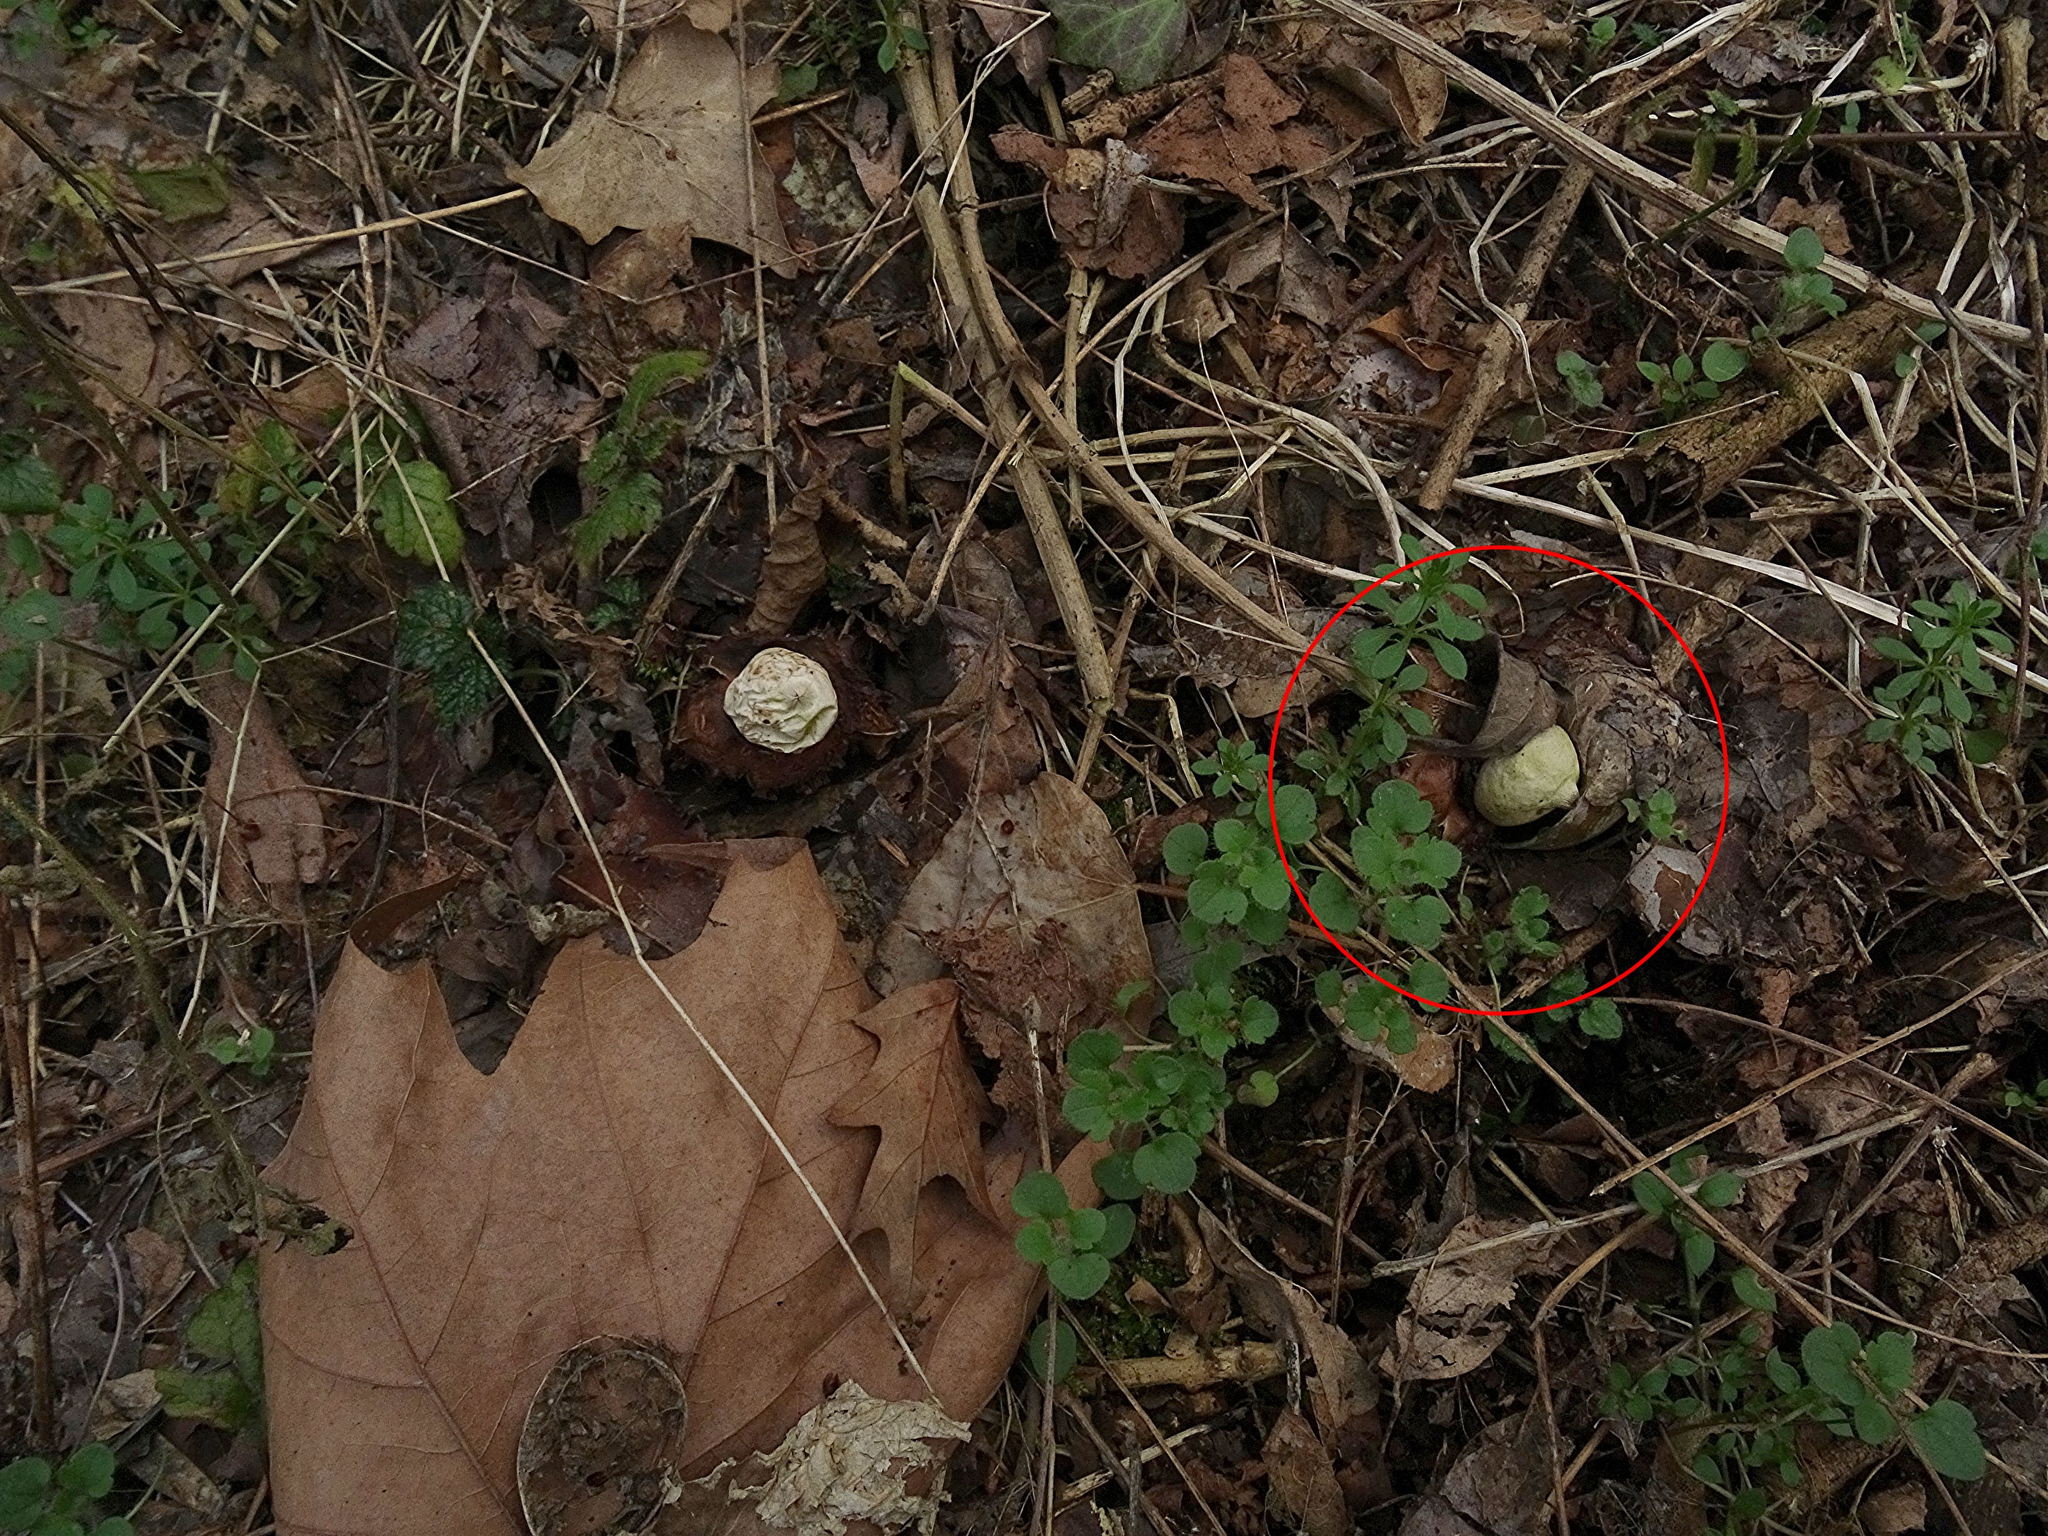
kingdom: Fungi
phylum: Basidiomycota
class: Agaricomycetes
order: Geastrales
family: Geastraceae
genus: Geastrum
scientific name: Geastrum triplex
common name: Collared earthstar
